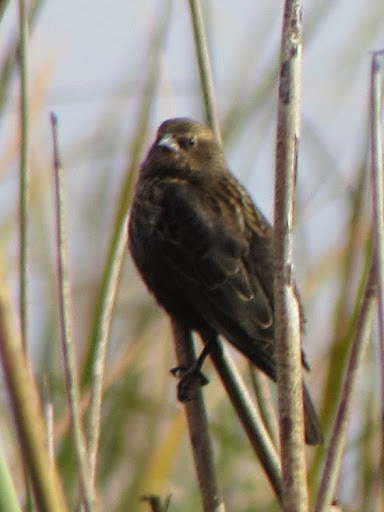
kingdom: Animalia
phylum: Chordata
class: Aves
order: Passeriformes
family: Icteridae
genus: Agelaius
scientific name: Agelaius
